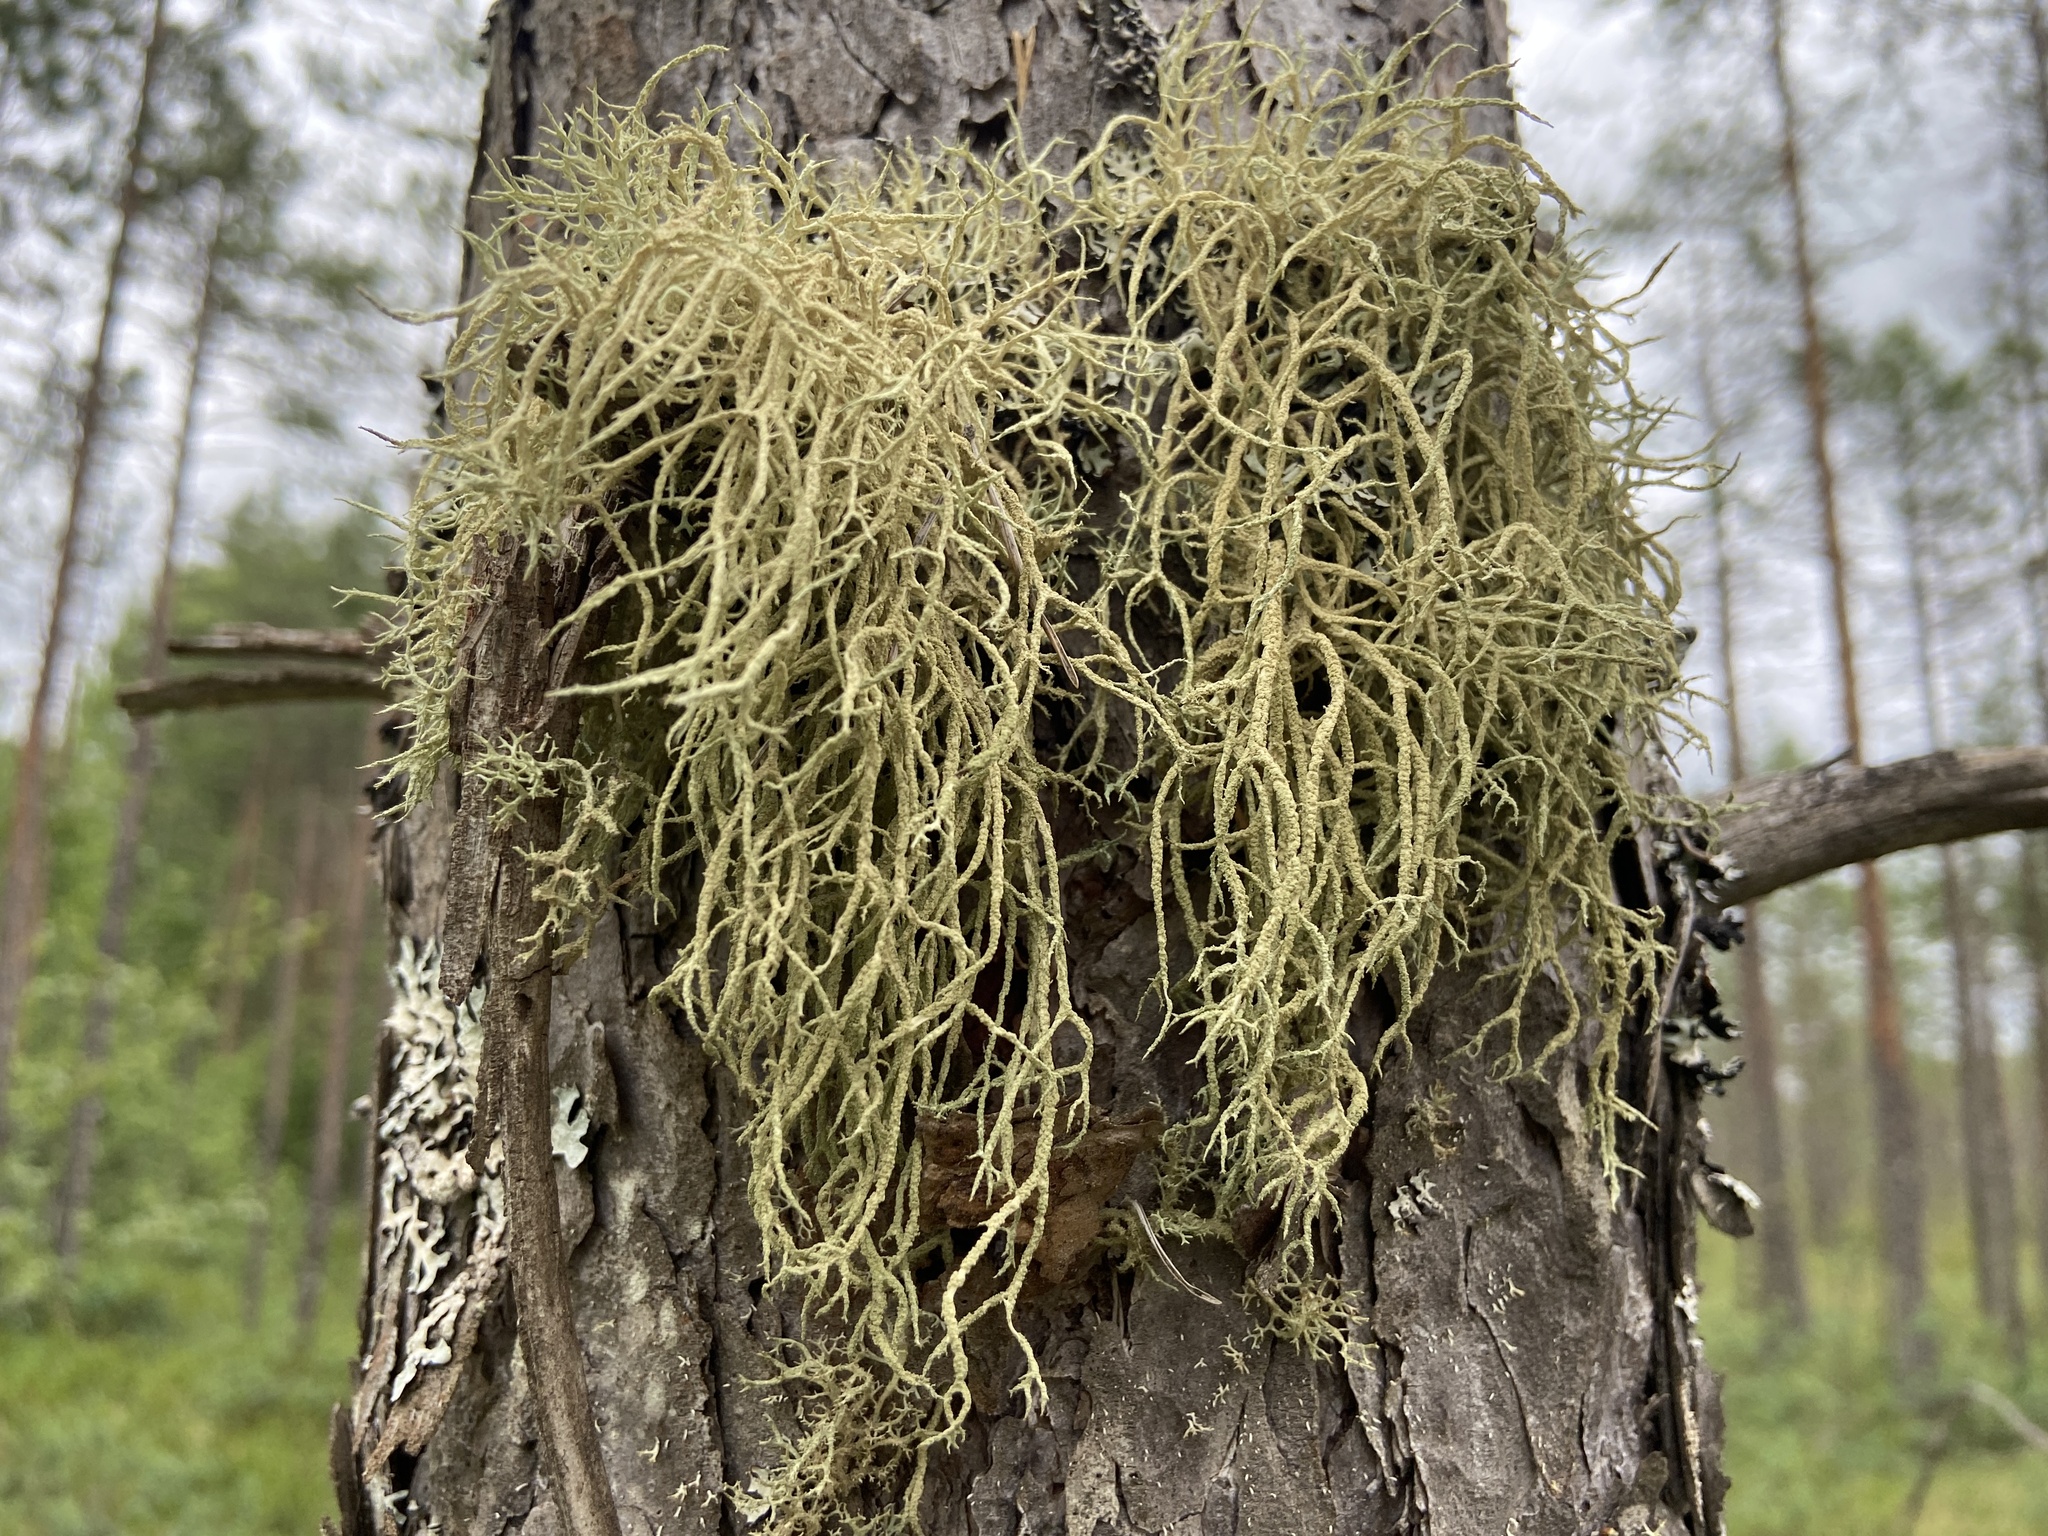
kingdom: Fungi
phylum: Ascomycota
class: Lecanoromycetes
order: Lecanorales
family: Parmeliaceae
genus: Evernia
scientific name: Evernia mesomorpha
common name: Boreal oak moss lichen
